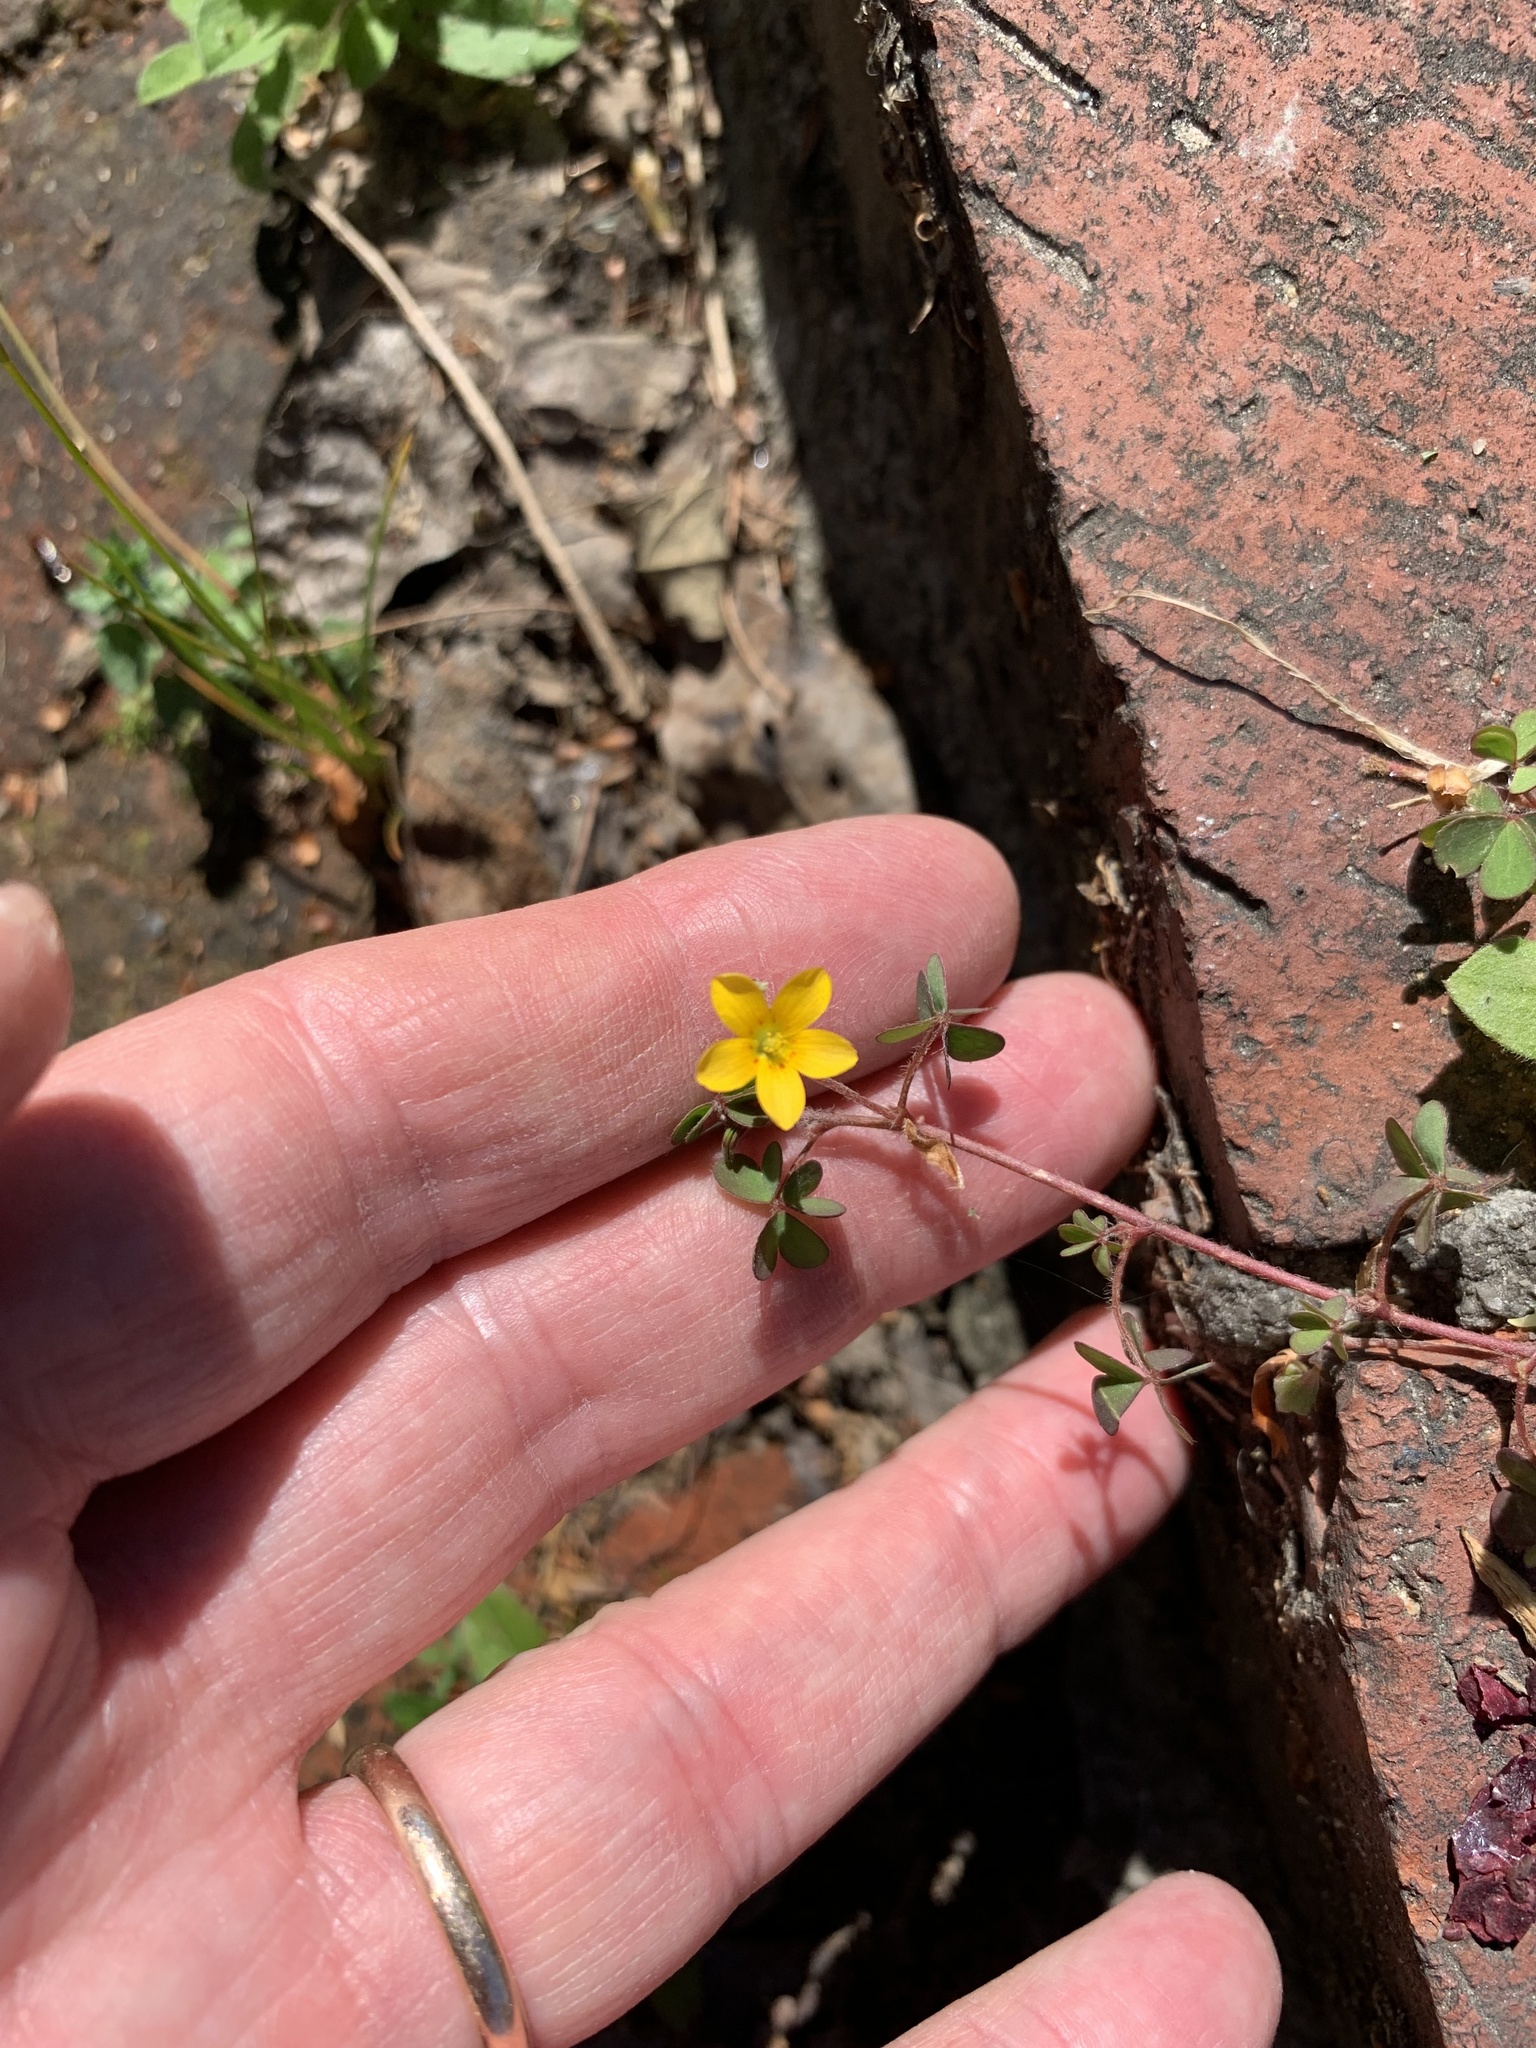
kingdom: Plantae
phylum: Tracheophyta
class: Magnoliopsida
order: Oxalidales
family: Oxalidaceae
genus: Oxalis
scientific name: Oxalis corniculata
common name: Procumbent yellow-sorrel
